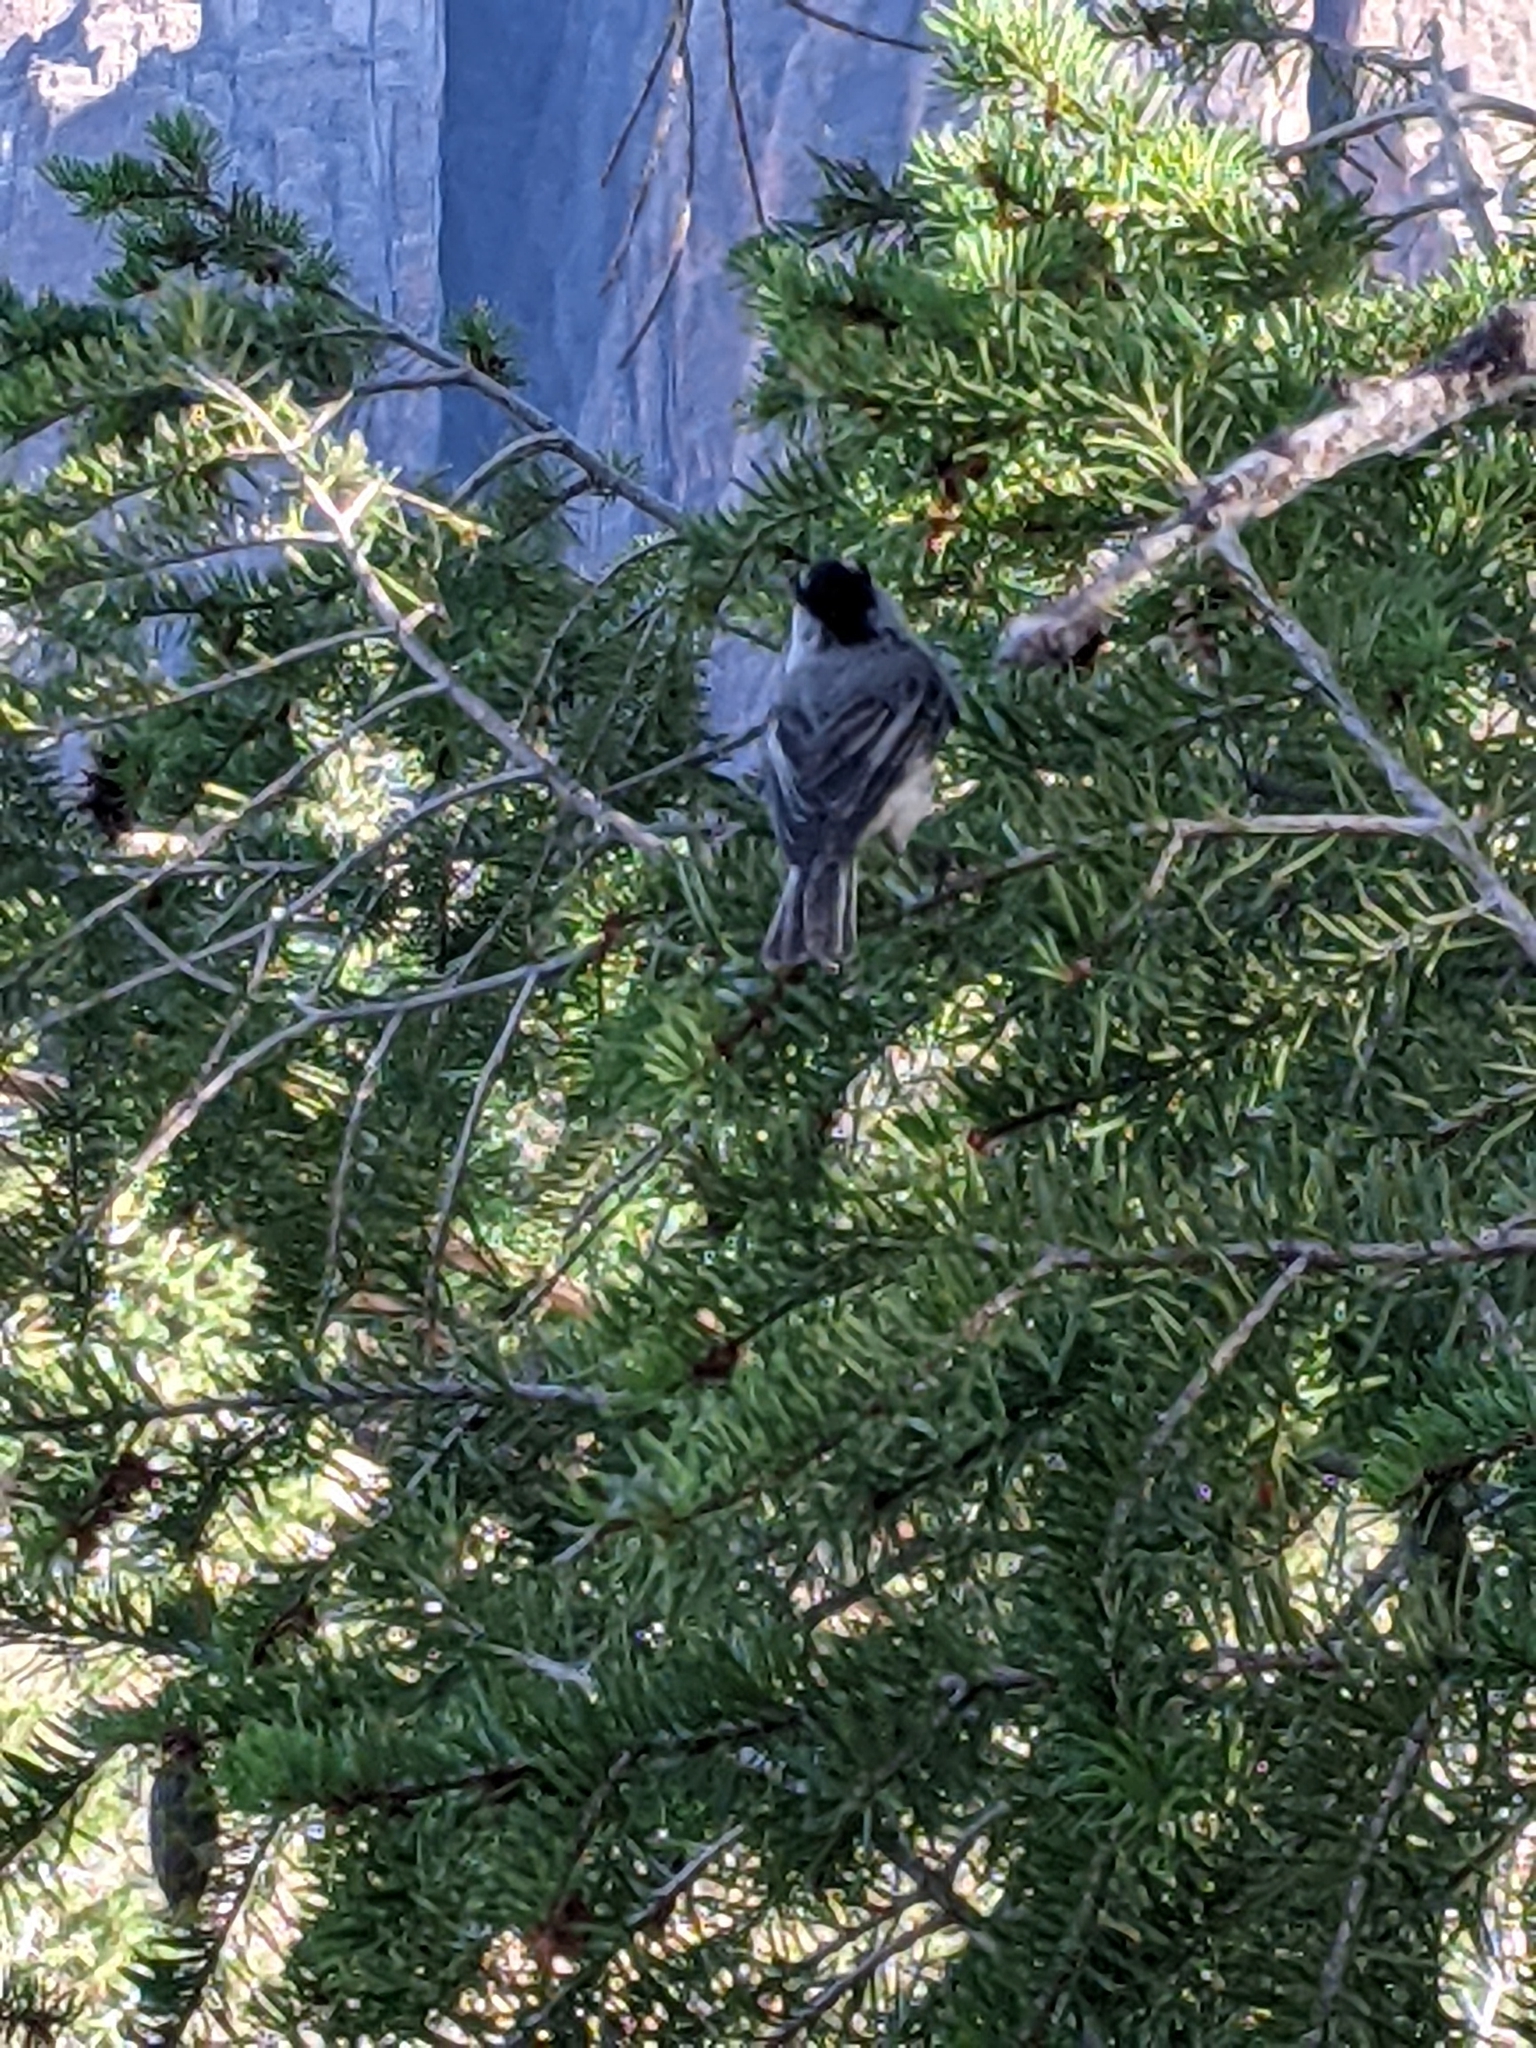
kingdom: Animalia
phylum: Chordata
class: Aves
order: Passeriformes
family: Paridae
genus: Poecile
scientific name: Poecile gambeli
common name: Mountain chickadee
